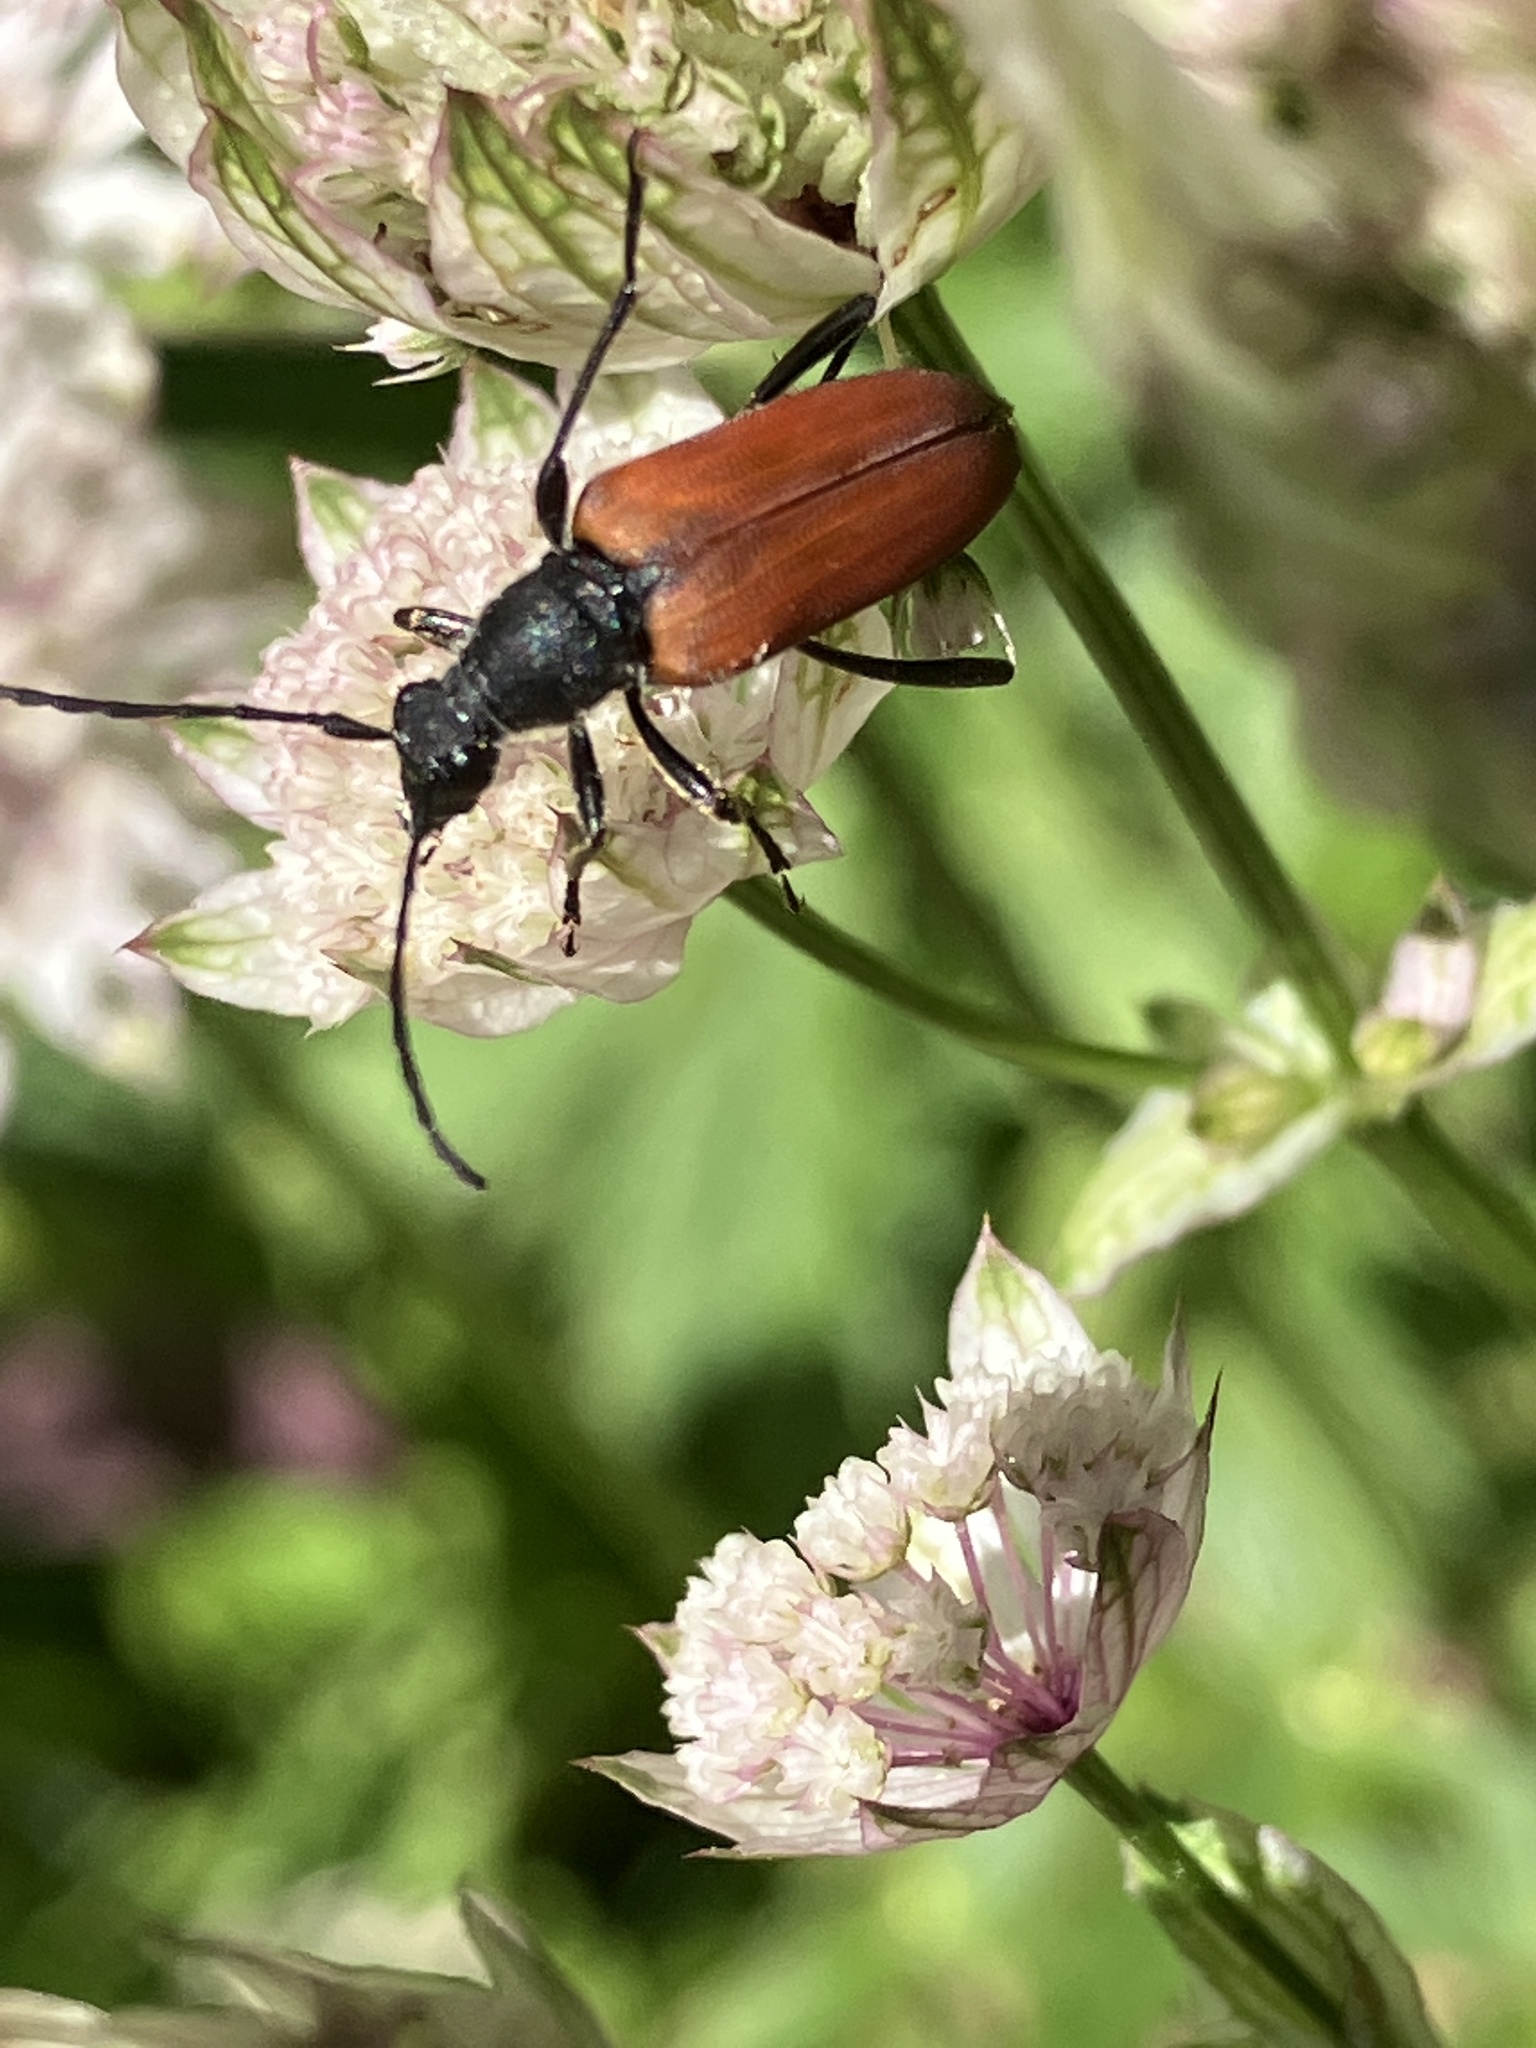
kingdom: Animalia
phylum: Arthropoda
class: Insecta
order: Coleoptera
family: Cerambycidae
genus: Anastrangalia
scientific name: Anastrangalia sanguinolenta
